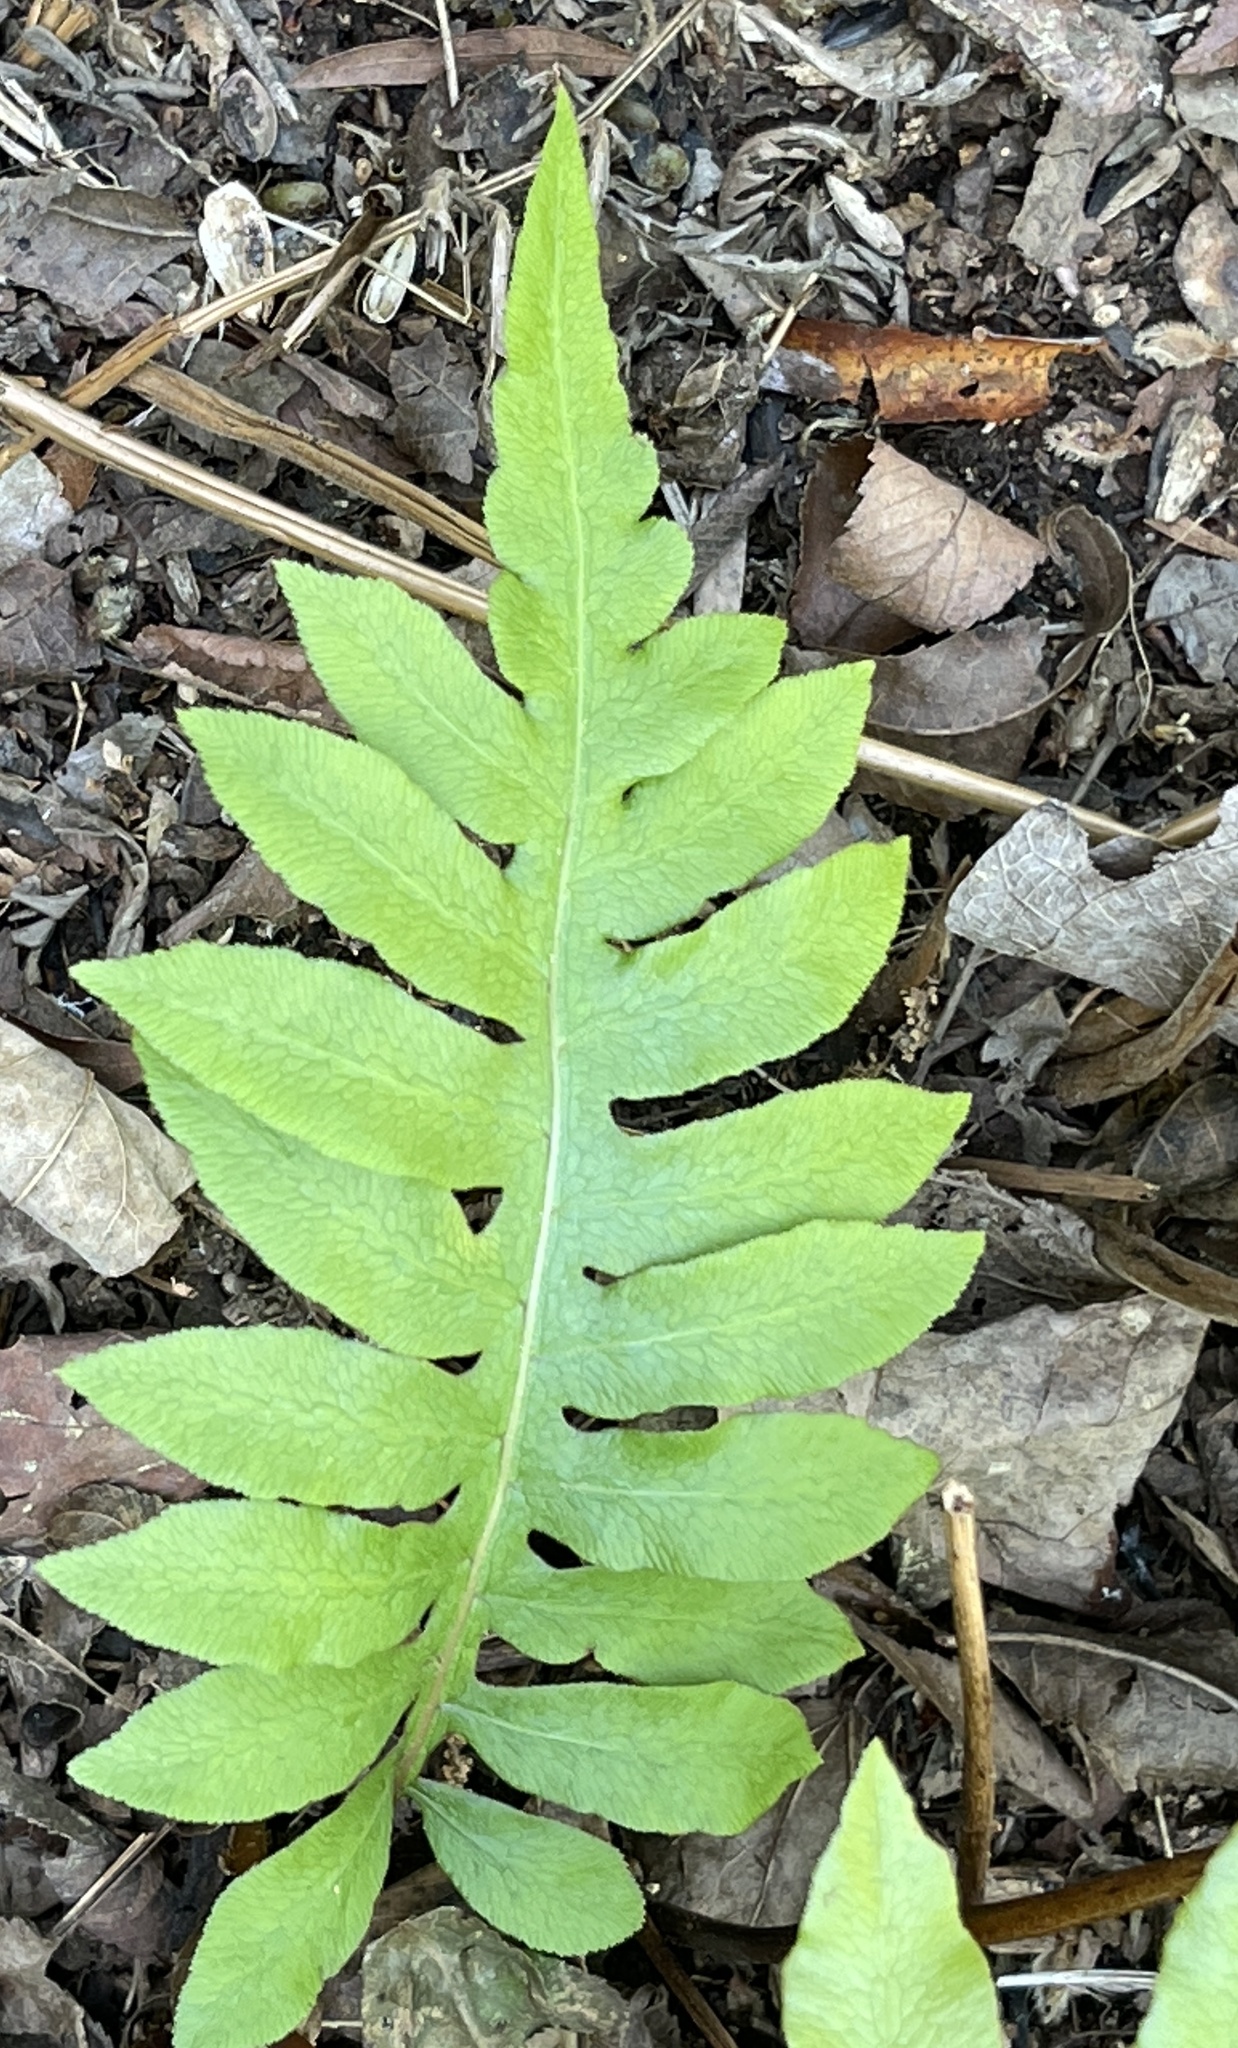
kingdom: Plantae
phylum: Tracheophyta
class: Polypodiopsida
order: Polypodiales
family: Blechnaceae
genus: Lorinseria
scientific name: Lorinseria areolata
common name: Dwarf chain fern
